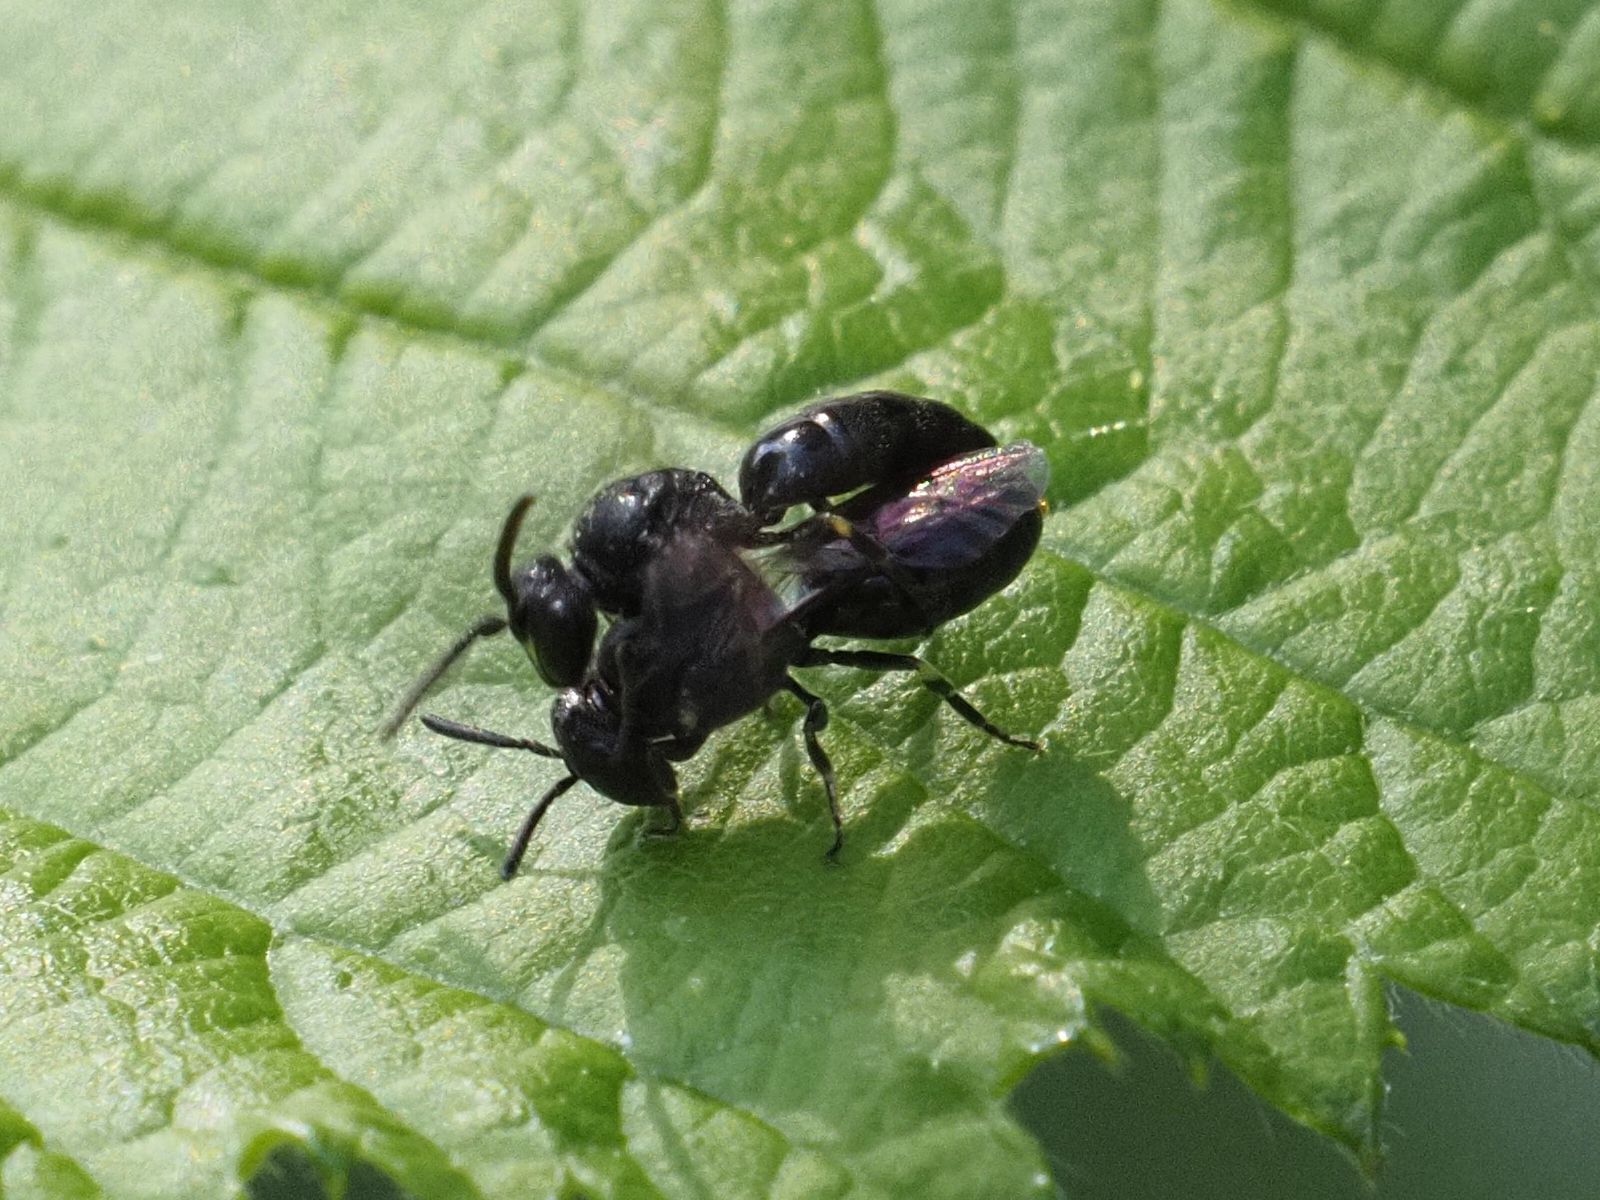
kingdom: Animalia
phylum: Arthropoda
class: Insecta
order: Hymenoptera
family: Colletidae
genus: Hylaeus
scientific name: Hylaeus communis
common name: Common yellow-face bee
